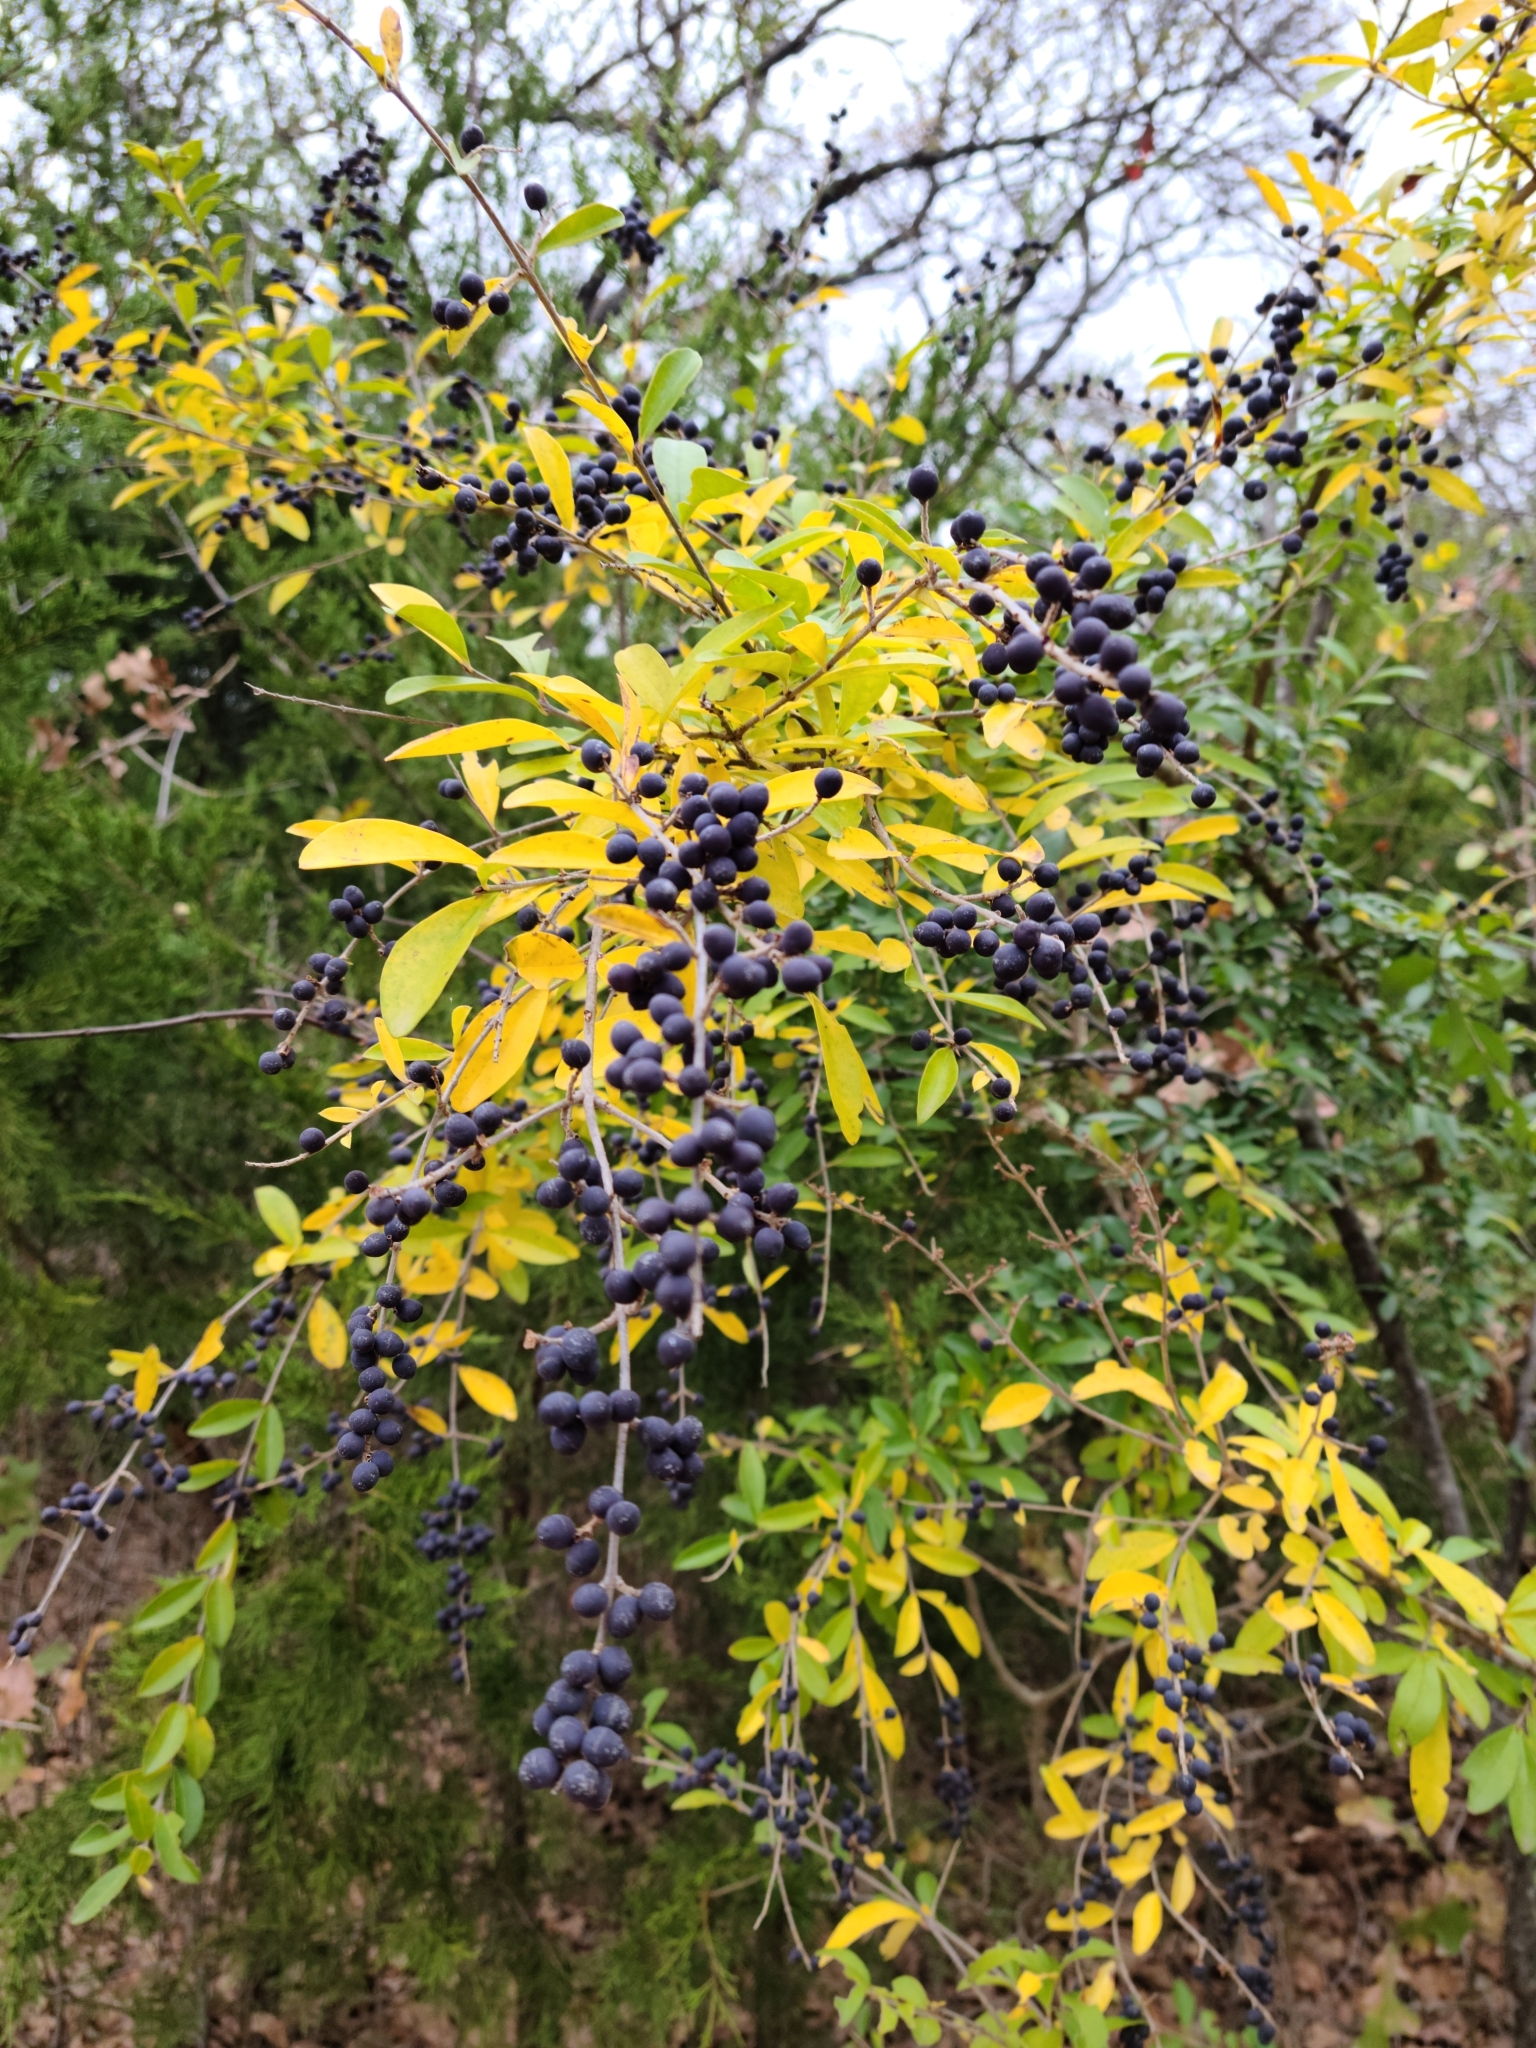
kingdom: Plantae
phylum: Tracheophyta
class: Magnoliopsida
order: Lamiales
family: Oleaceae
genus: Ligustrum
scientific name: Ligustrum quihoui
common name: Waxyleaf privet
